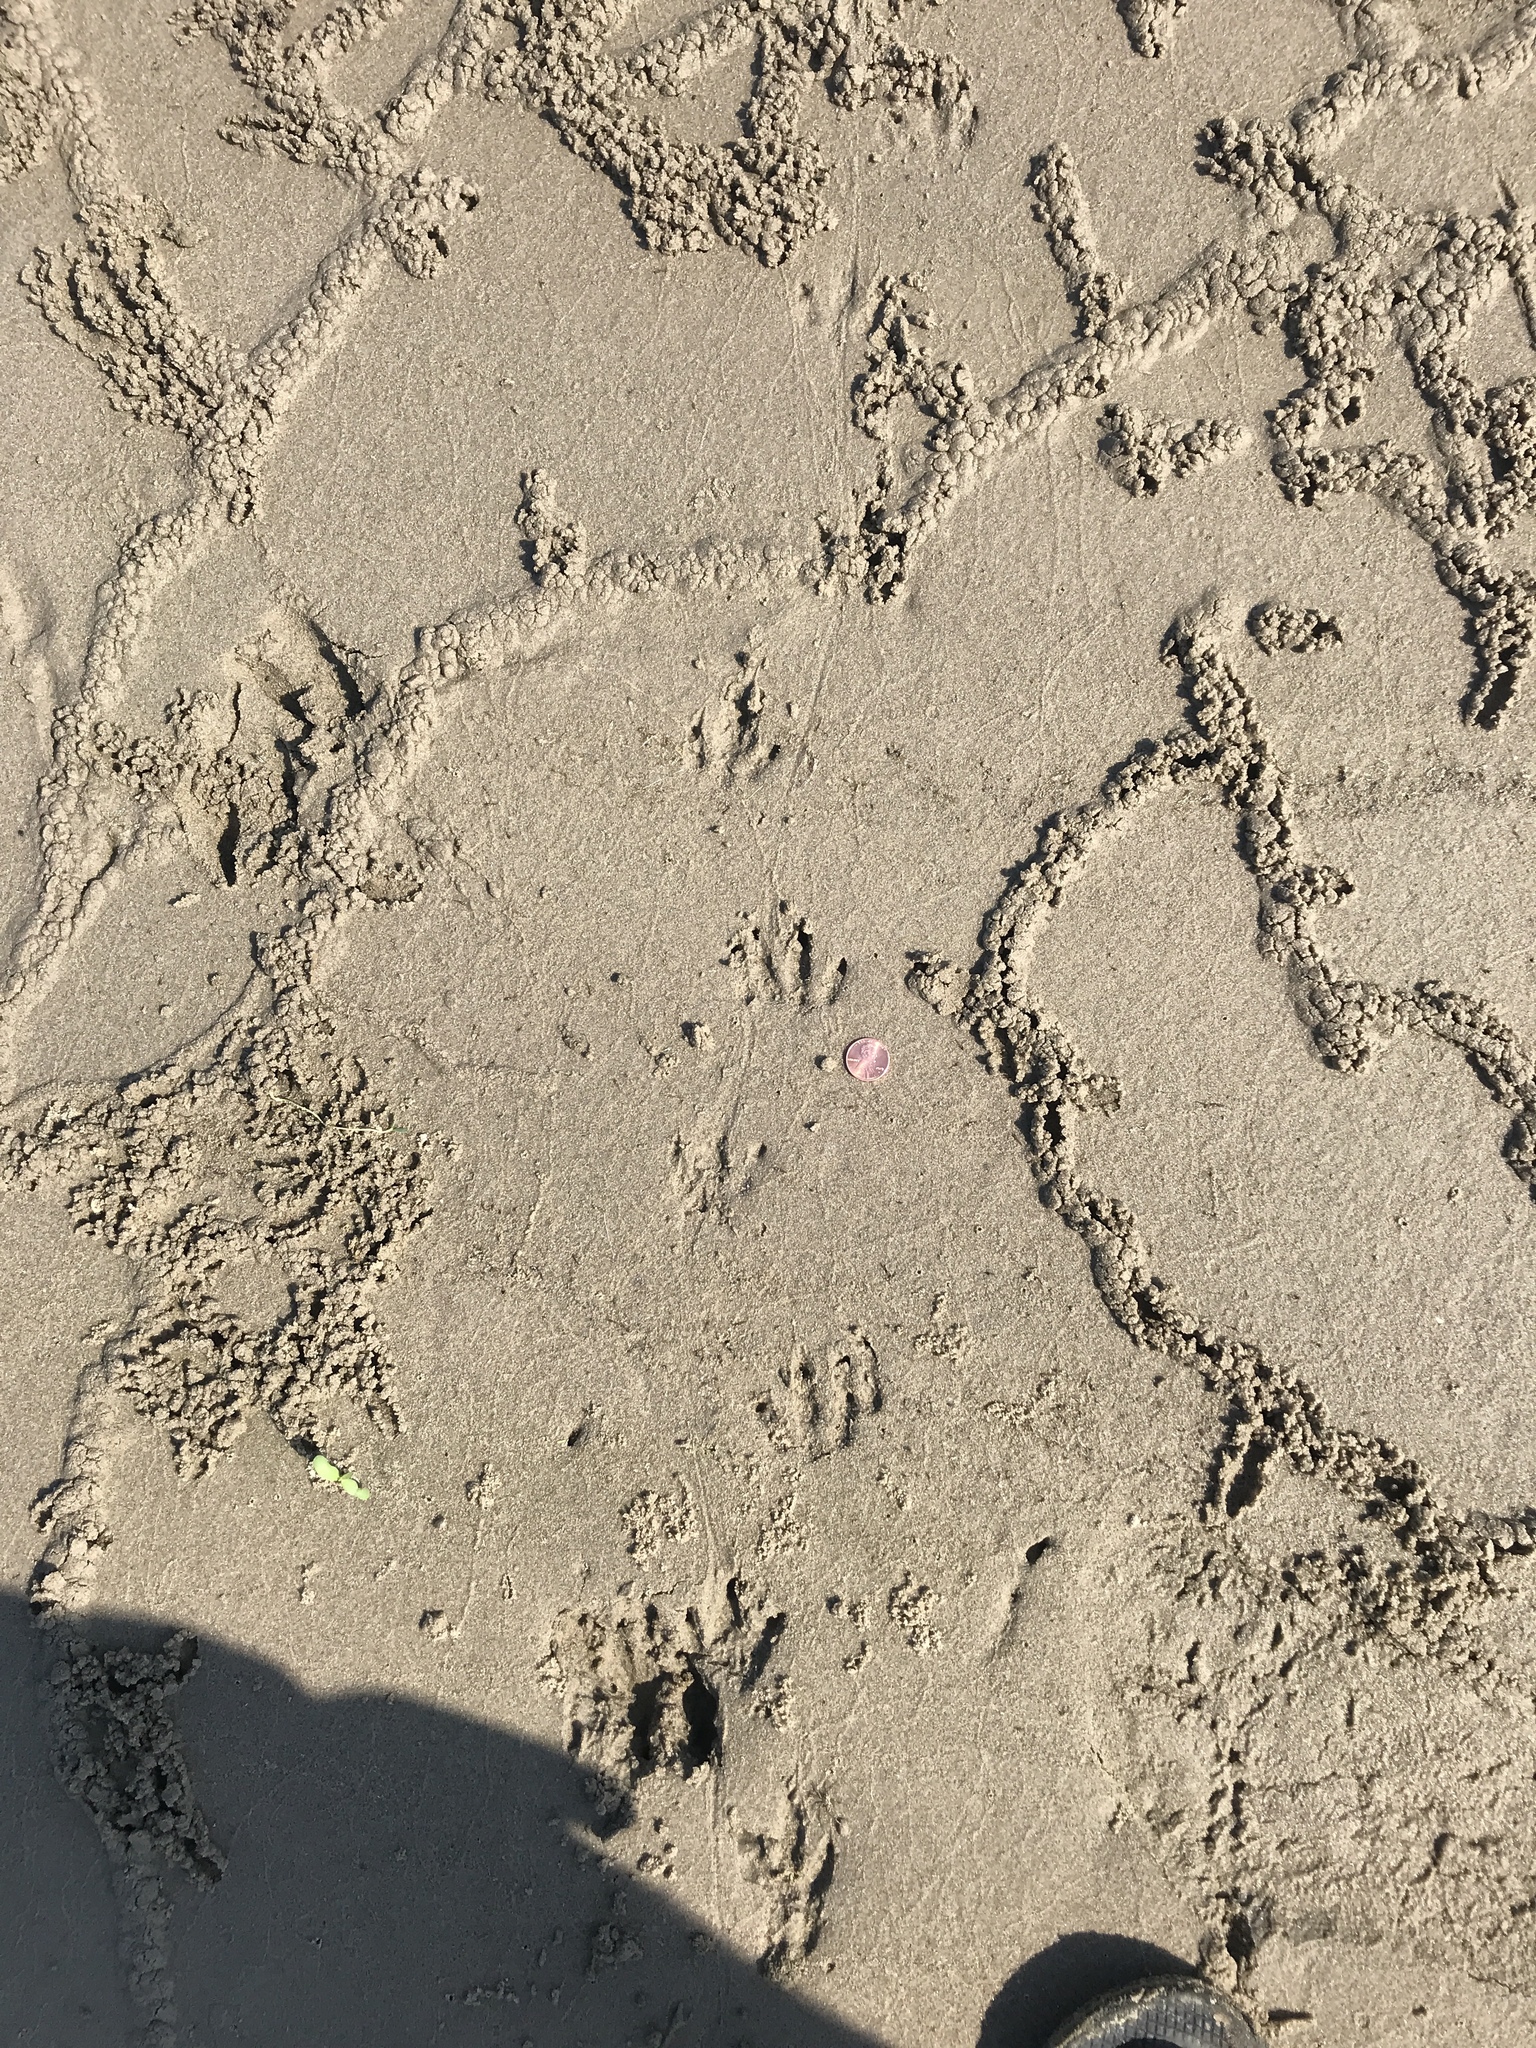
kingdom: Animalia
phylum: Chordata
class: Mammalia
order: Cingulata
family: Dasypodidae
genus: Dasypus
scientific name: Dasypus novemcinctus
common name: Nine-banded armadillo
